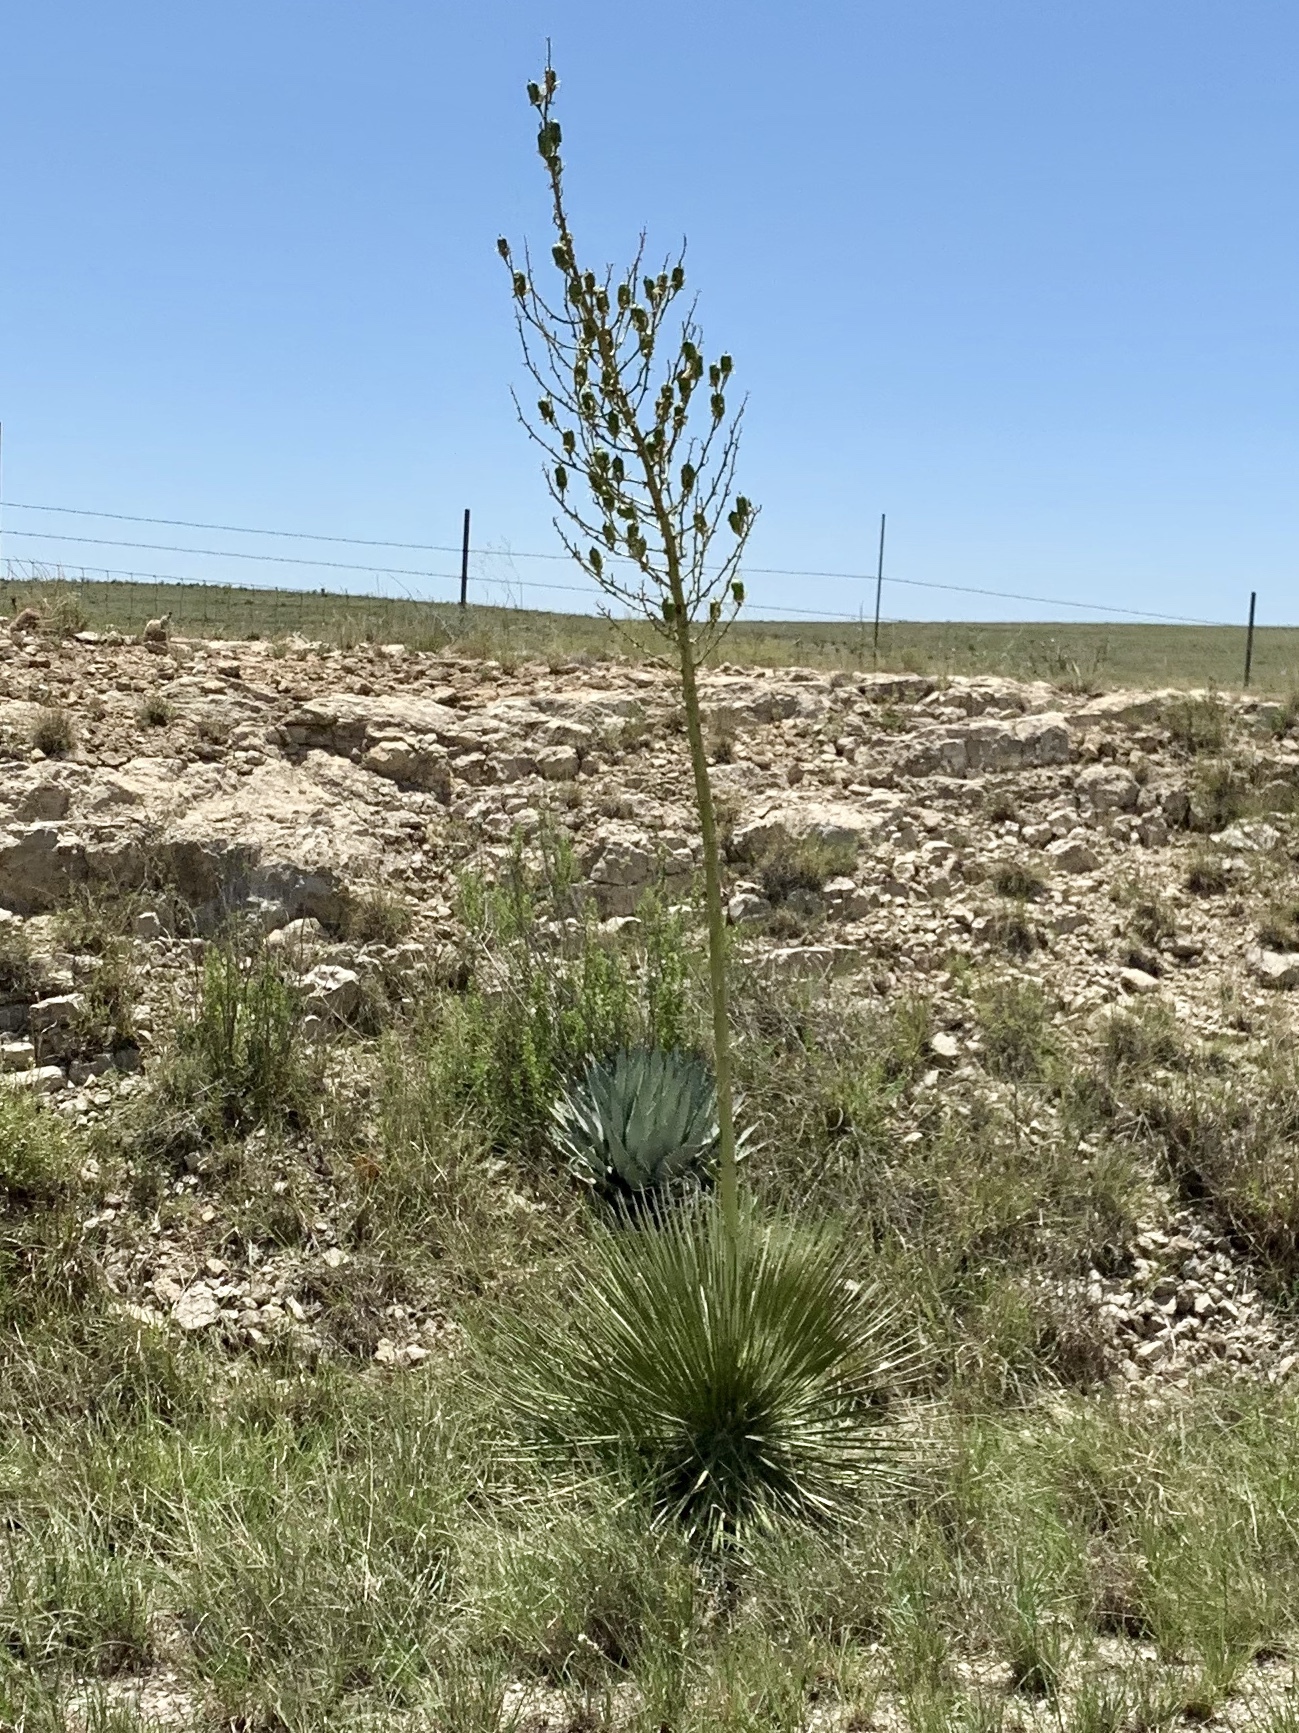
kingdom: Plantae
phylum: Tracheophyta
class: Liliopsida
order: Asparagales
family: Asparagaceae
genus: Yucca
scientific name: Yucca elata
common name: Palmella
